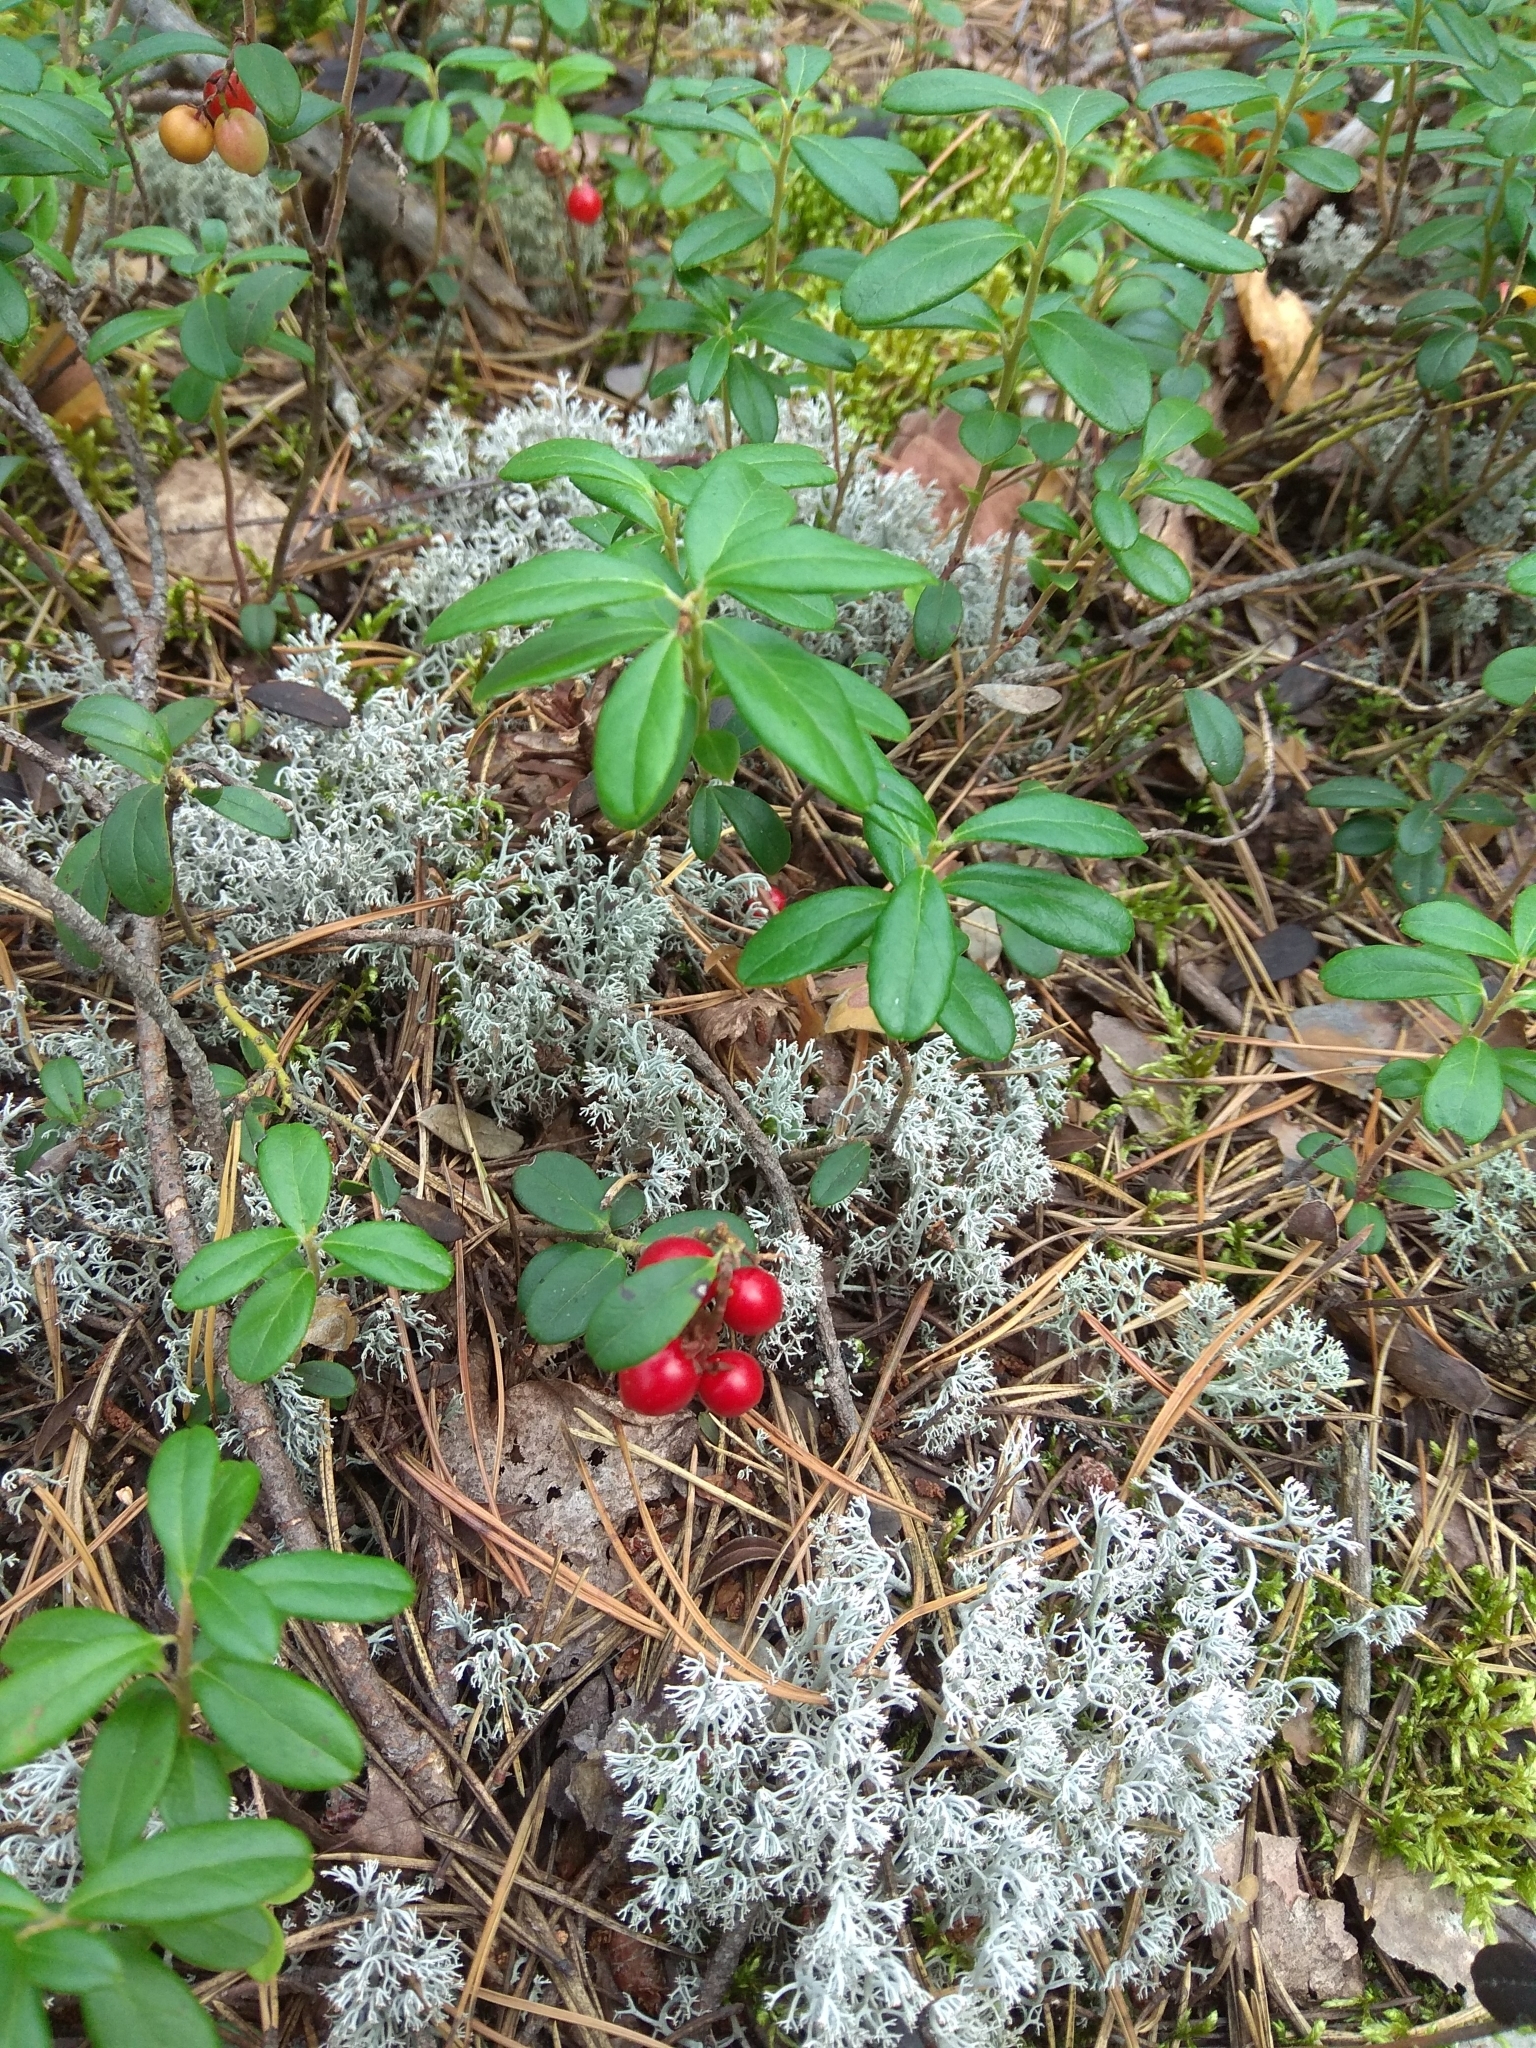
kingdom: Plantae
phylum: Tracheophyta
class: Magnoliopsida
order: Ericales
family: Ericaceae
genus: Vaccinium
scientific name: Vaccinium vitis-idaea
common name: Cowberry
